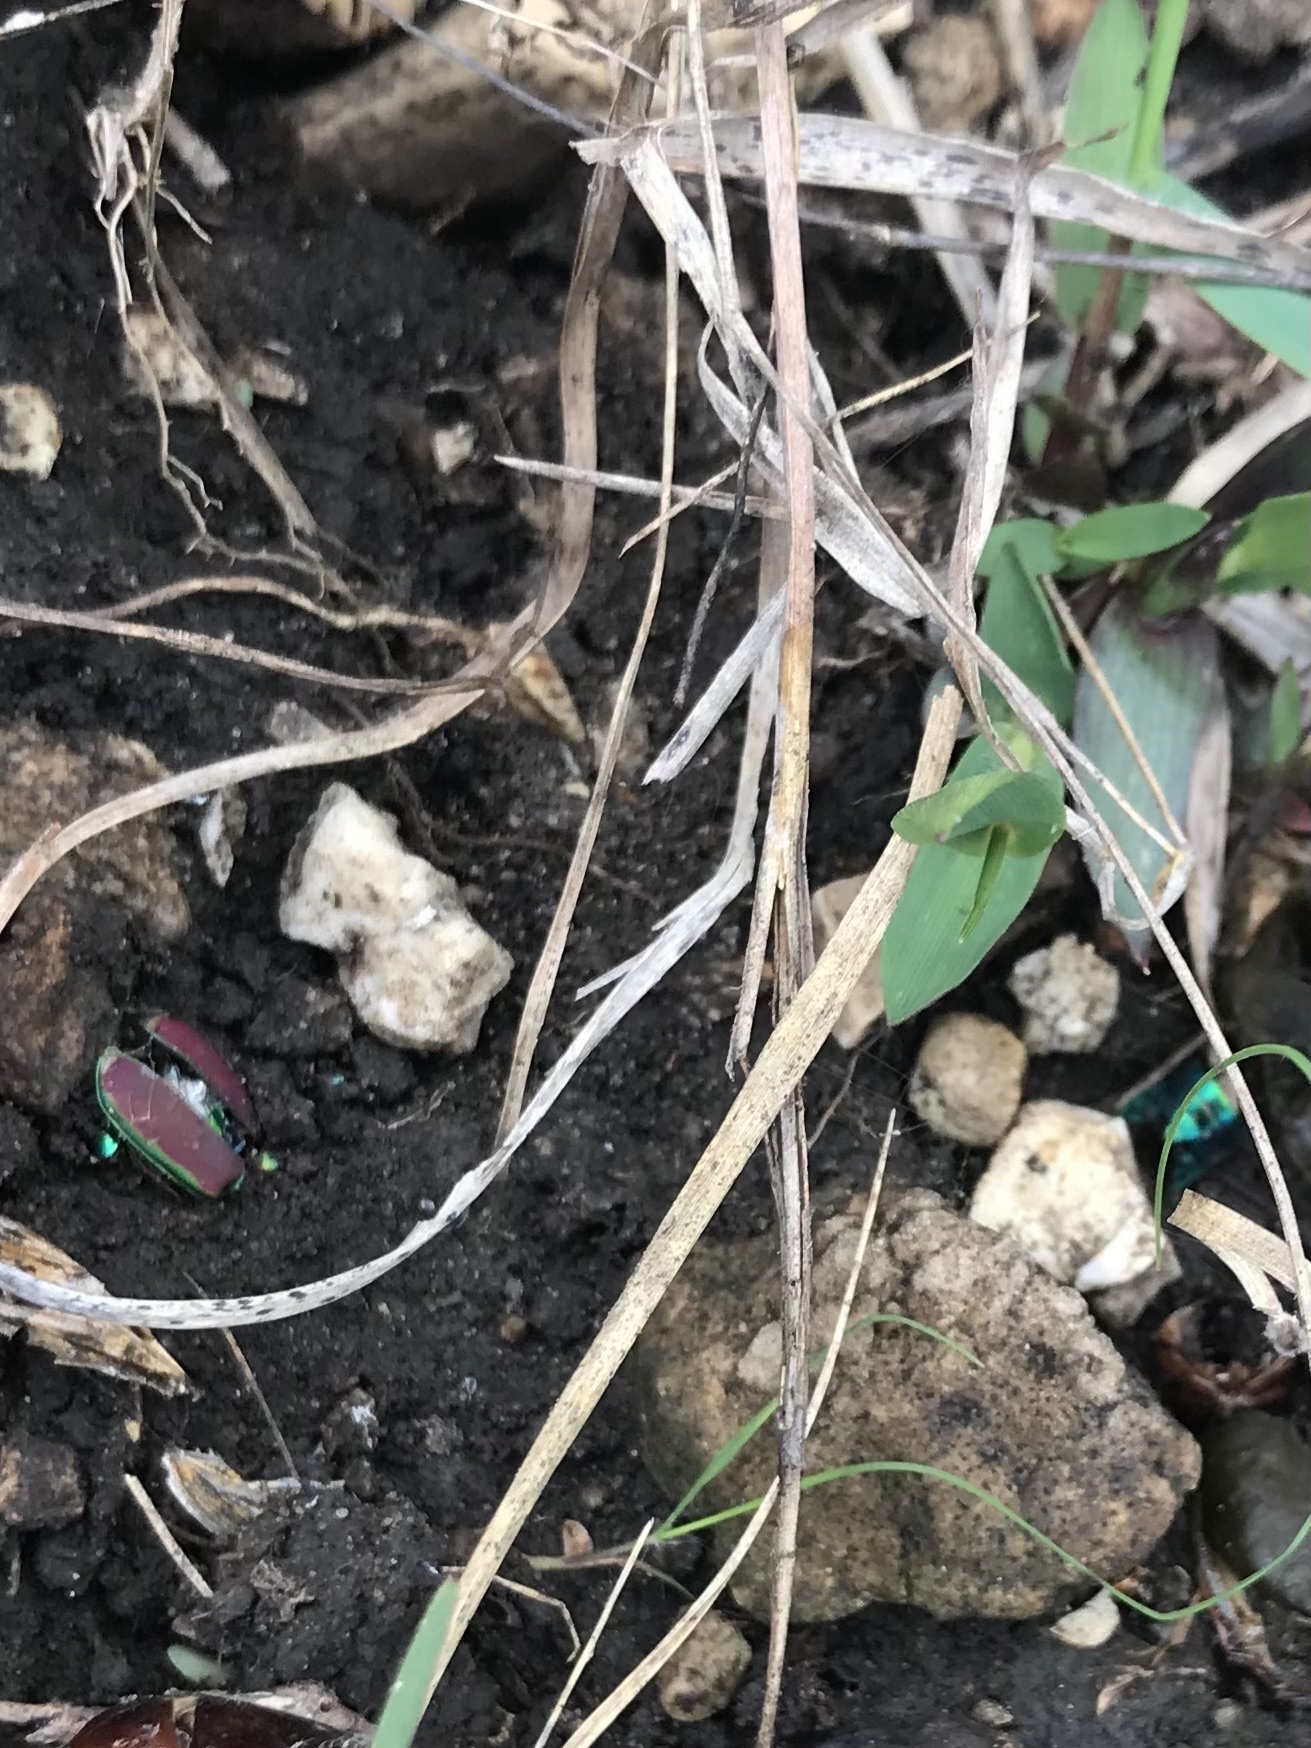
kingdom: Animalia
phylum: Arthropoda
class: Insecta
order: Coleoptera
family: Carabidae
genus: Cicindela
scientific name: Cicindela splendida
